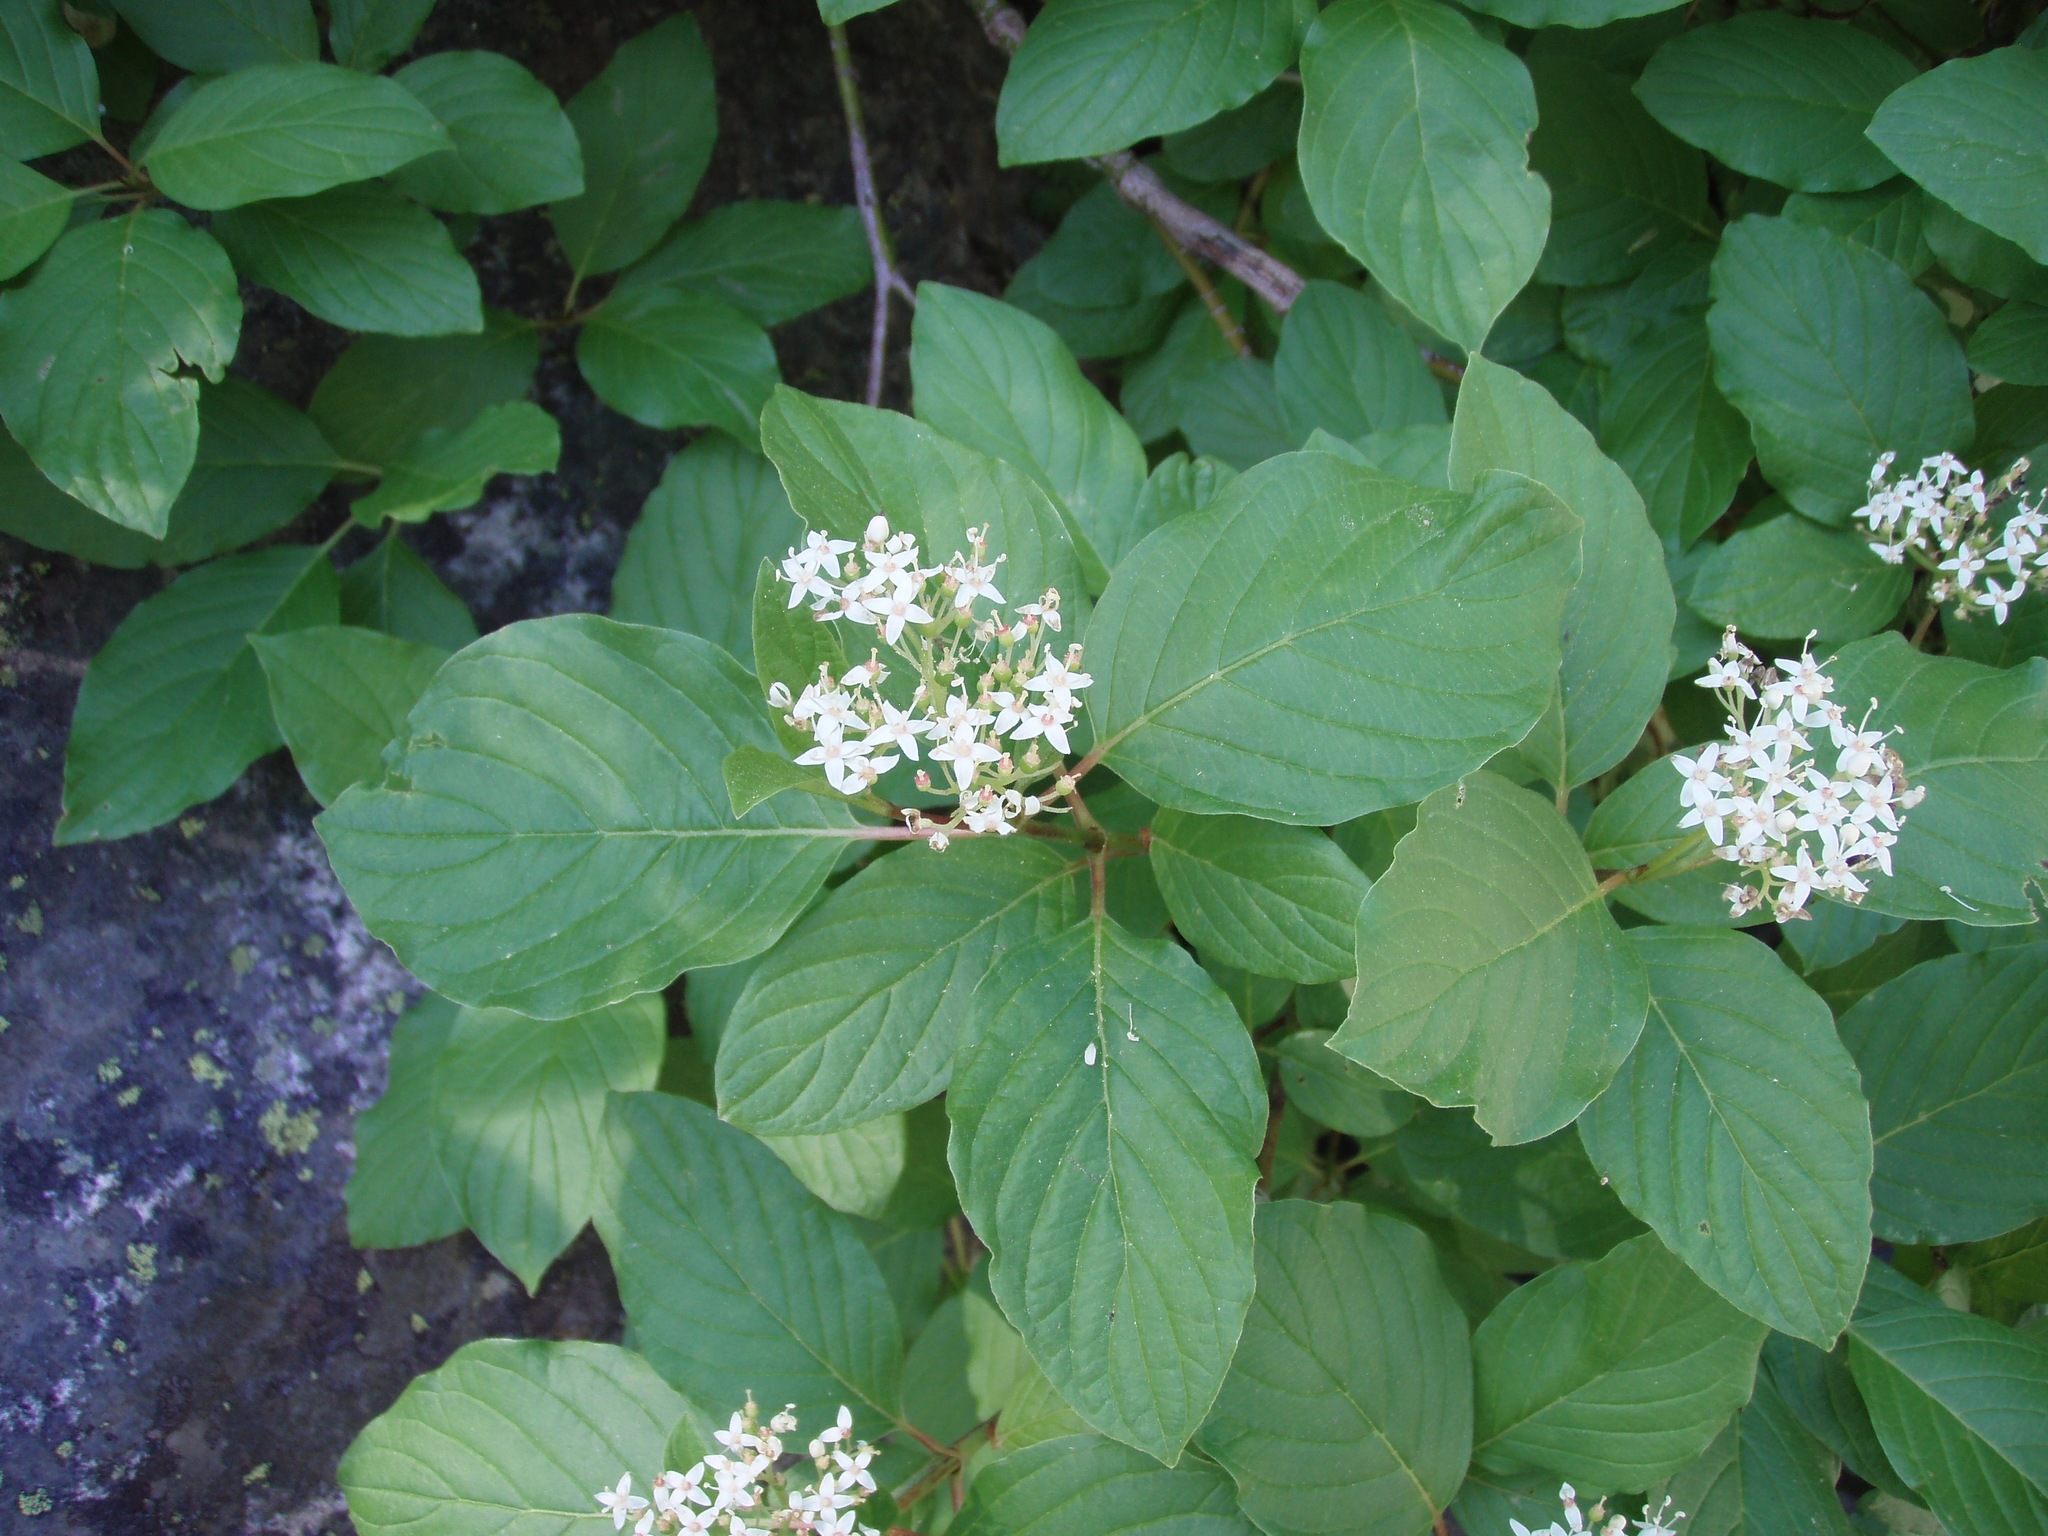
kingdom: Plantae
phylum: Tracheophyta
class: Magnoliopsida
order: Cornales
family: Cornaceae
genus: Cornus
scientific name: Cornus sericea
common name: Red-osier dogwood
